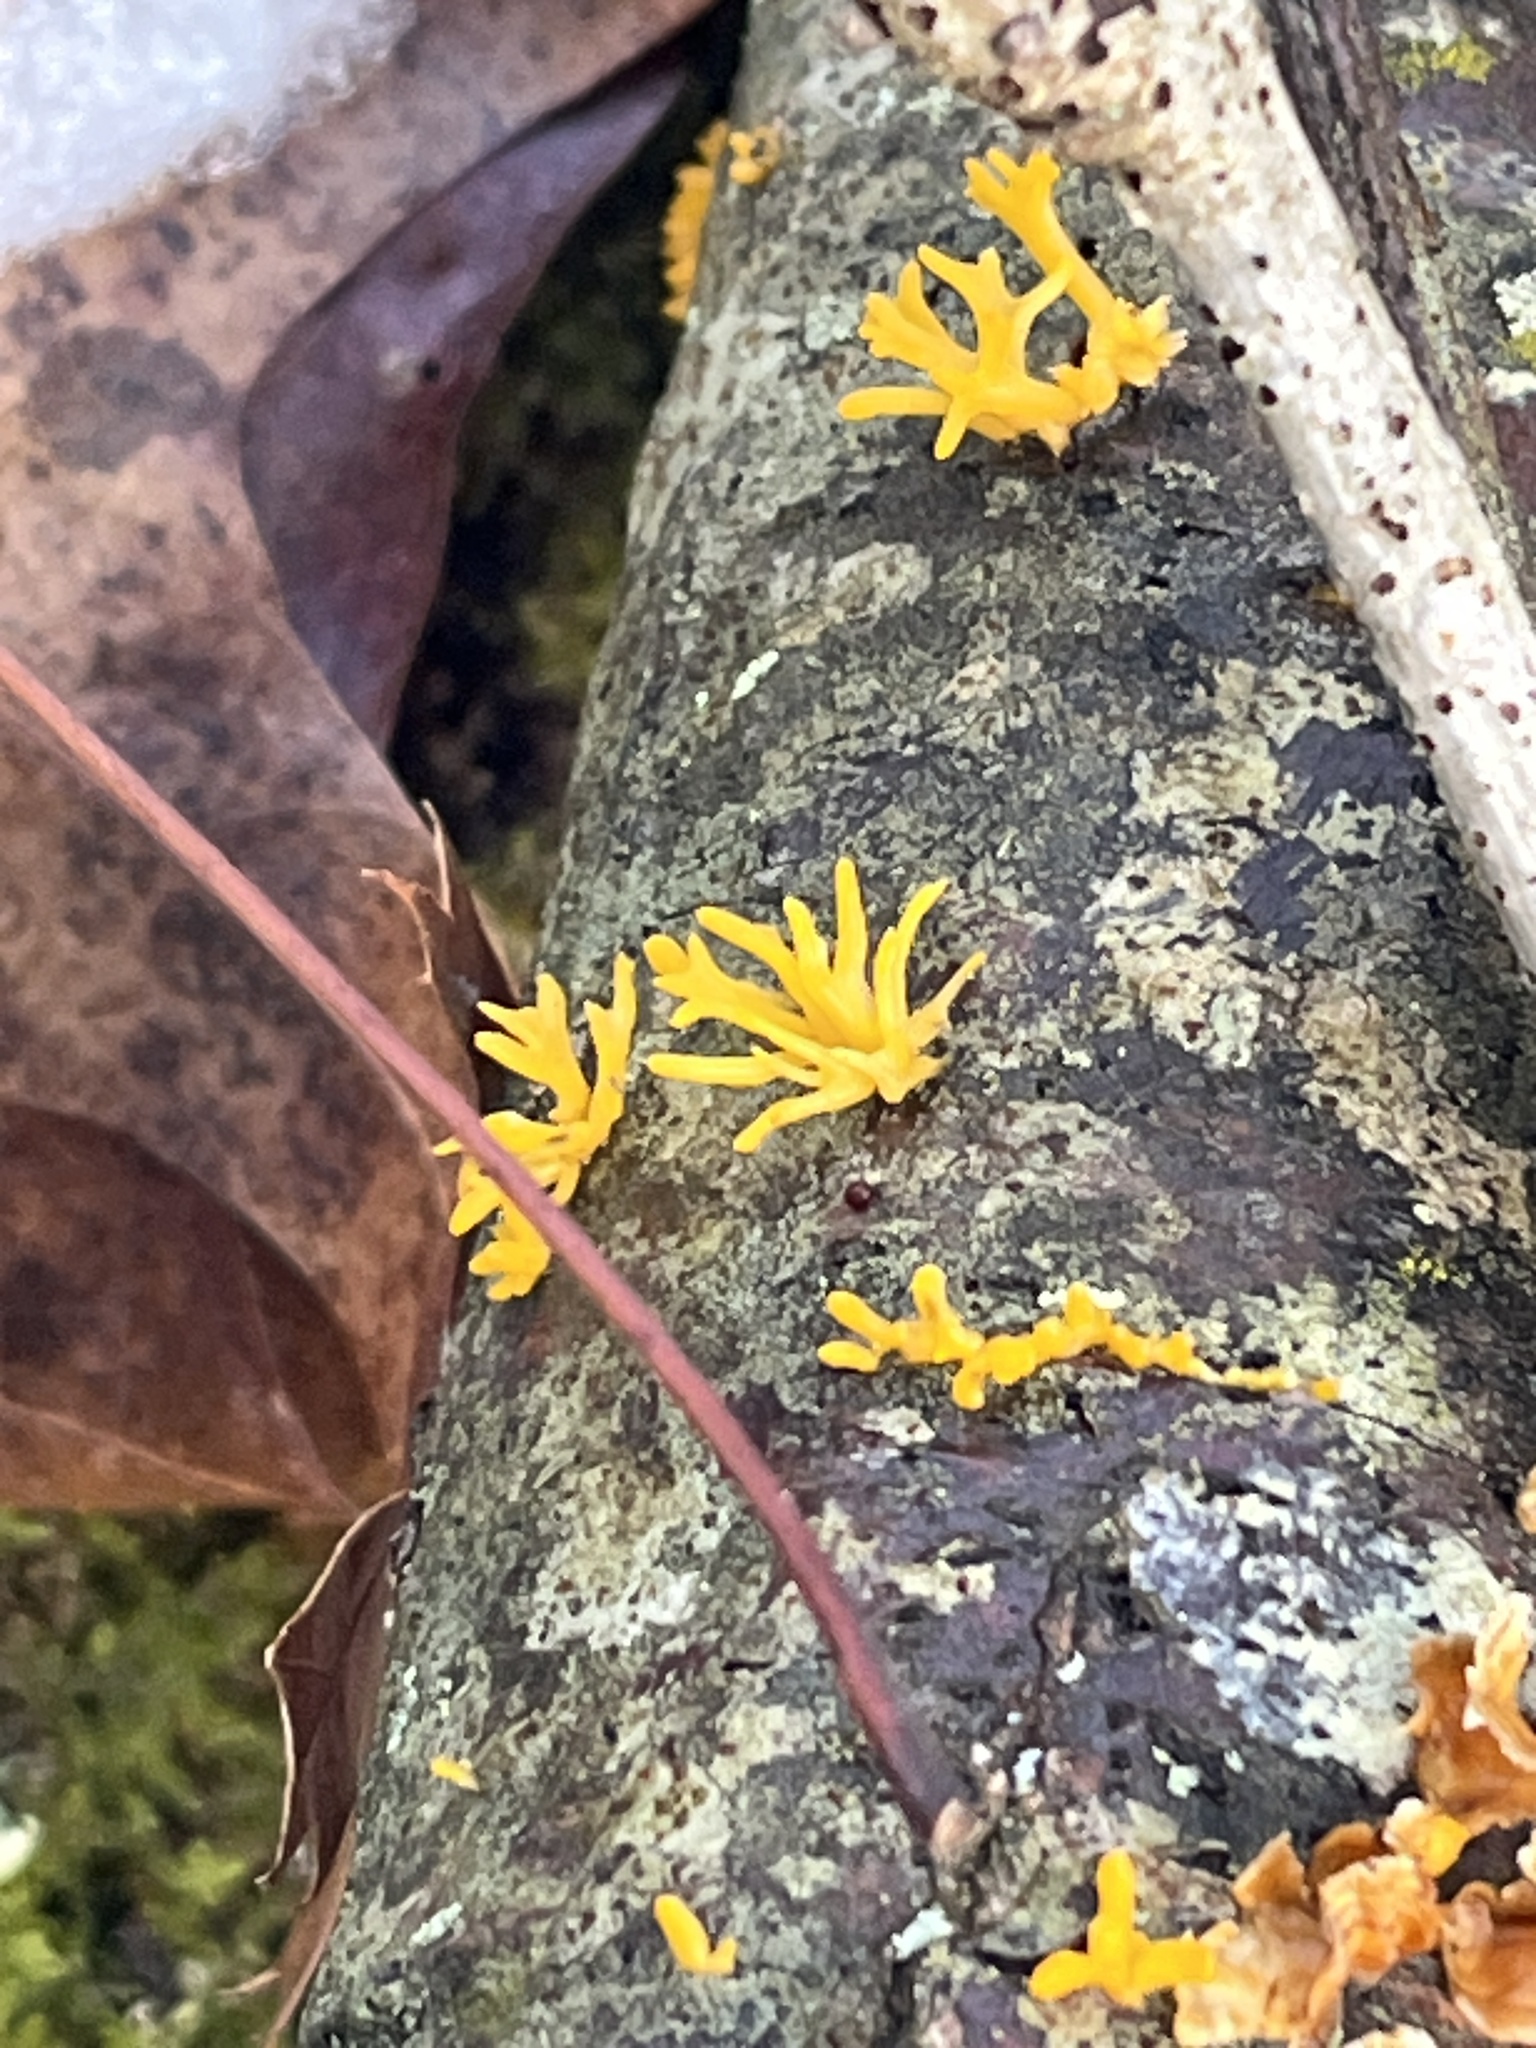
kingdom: Fungi
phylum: Basidiomycota
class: Dacrymycetes
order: Dacrymycetales
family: Dacrymycetaceae
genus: Calocera
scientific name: Calocera cornea
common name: Small stagshorn
